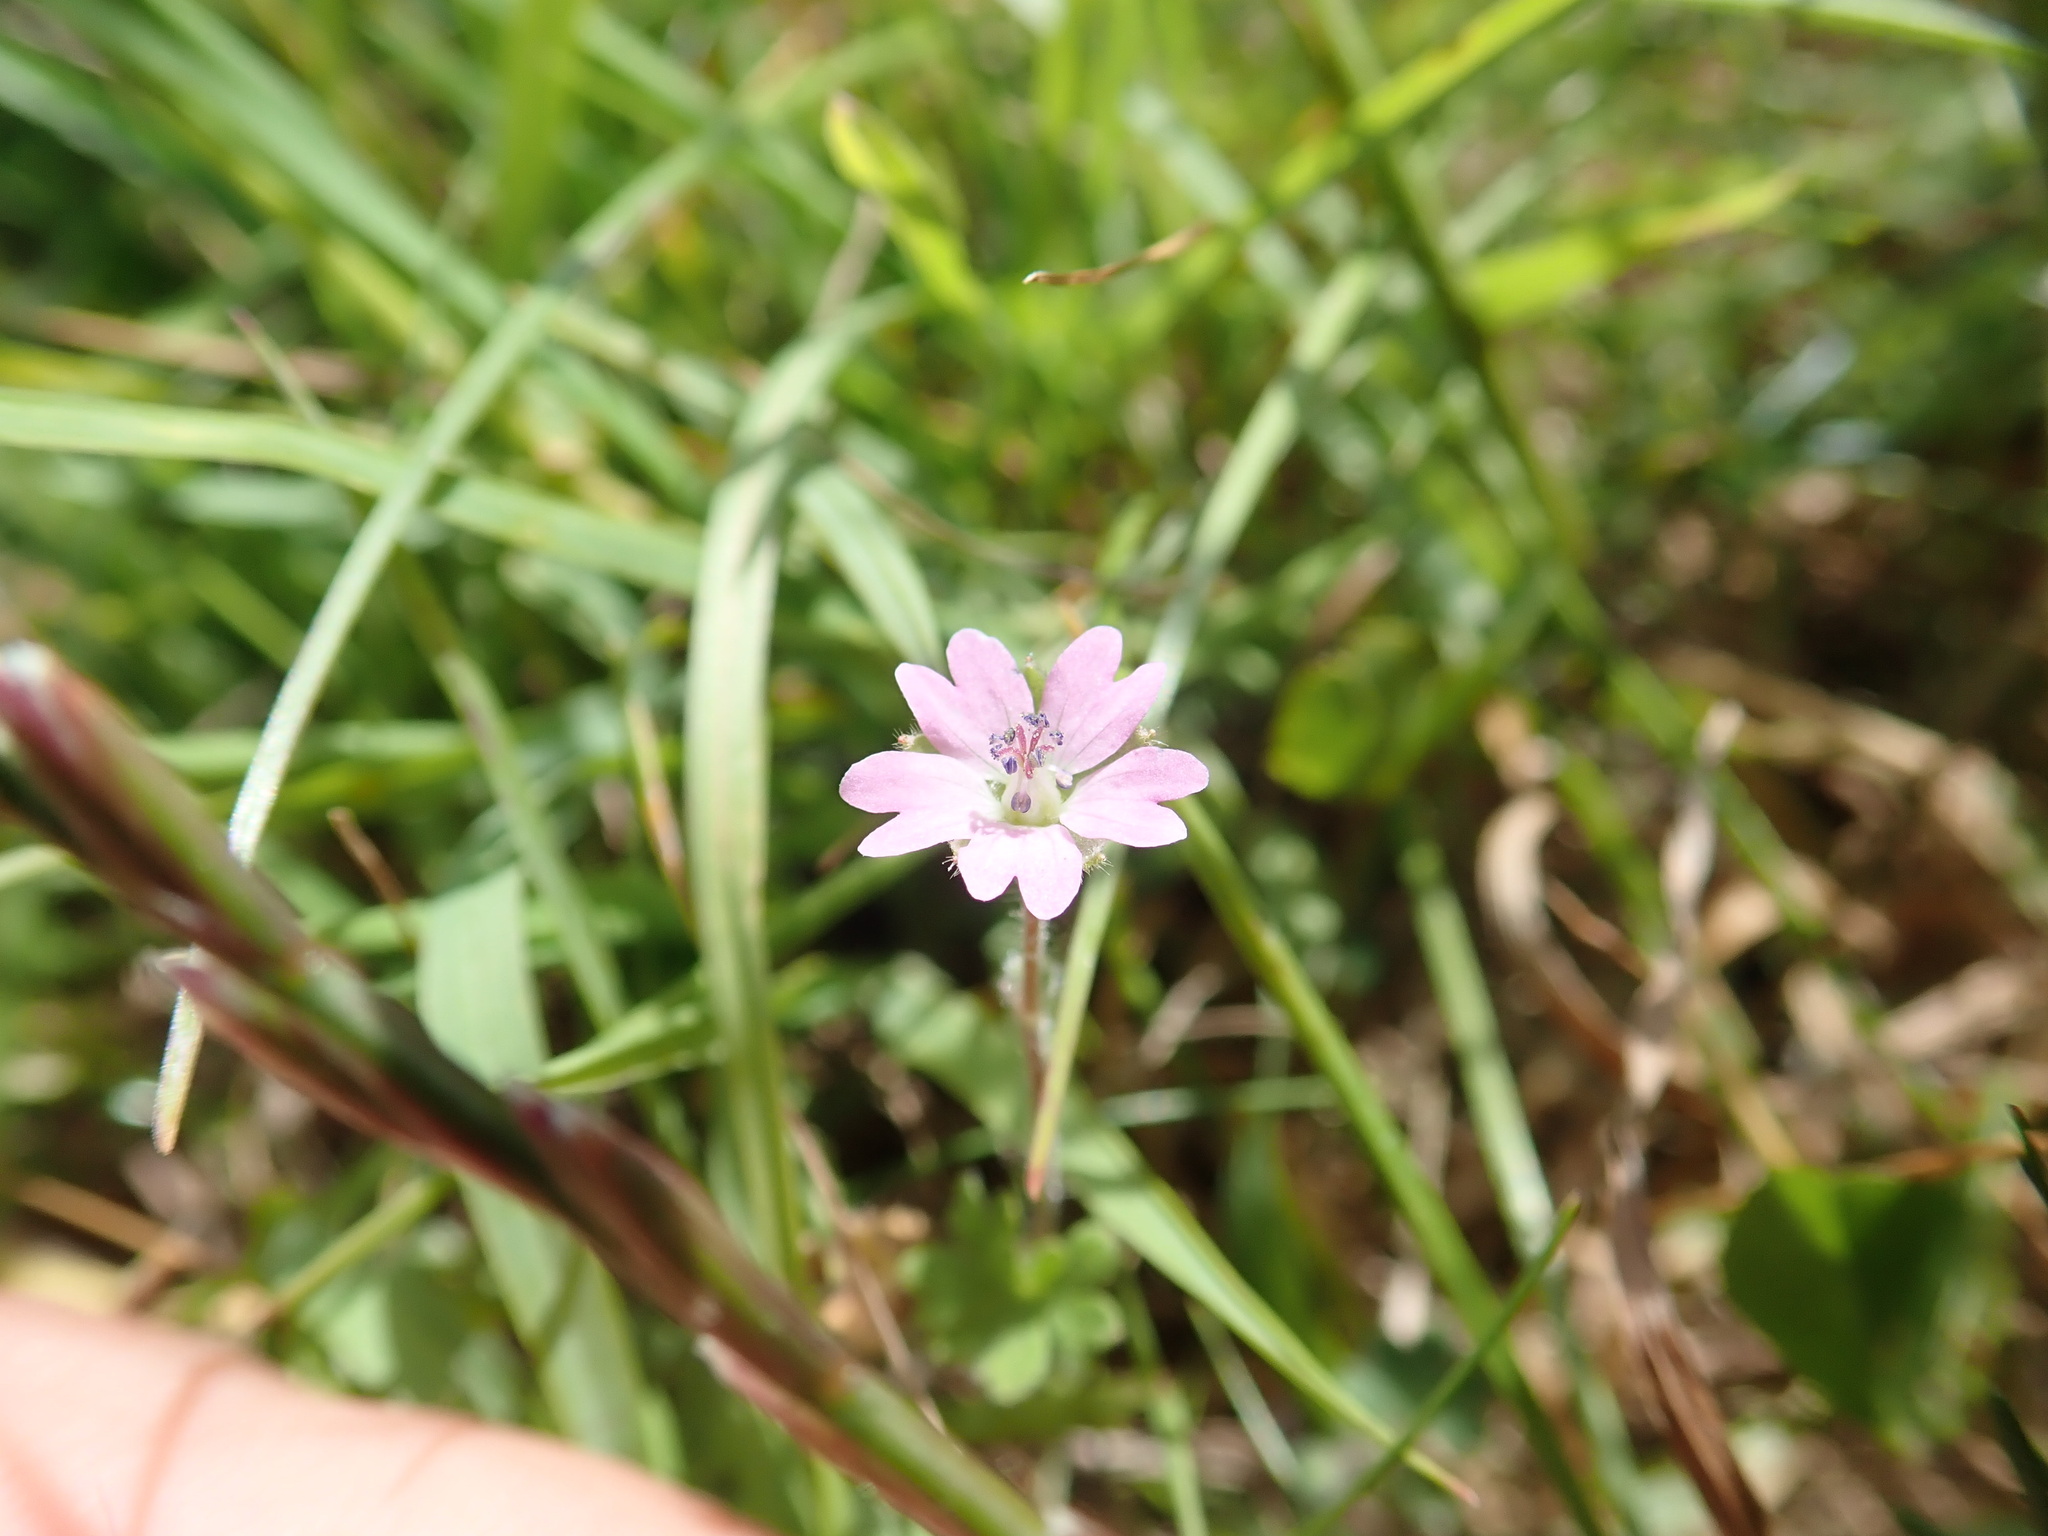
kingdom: Plantae
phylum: Tracheophyta
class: Magnoliopsida
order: Geraniales
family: Geraniaceae
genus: Geranium
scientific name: Geranium rotundifolium
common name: Round-leaved crane's-bill
